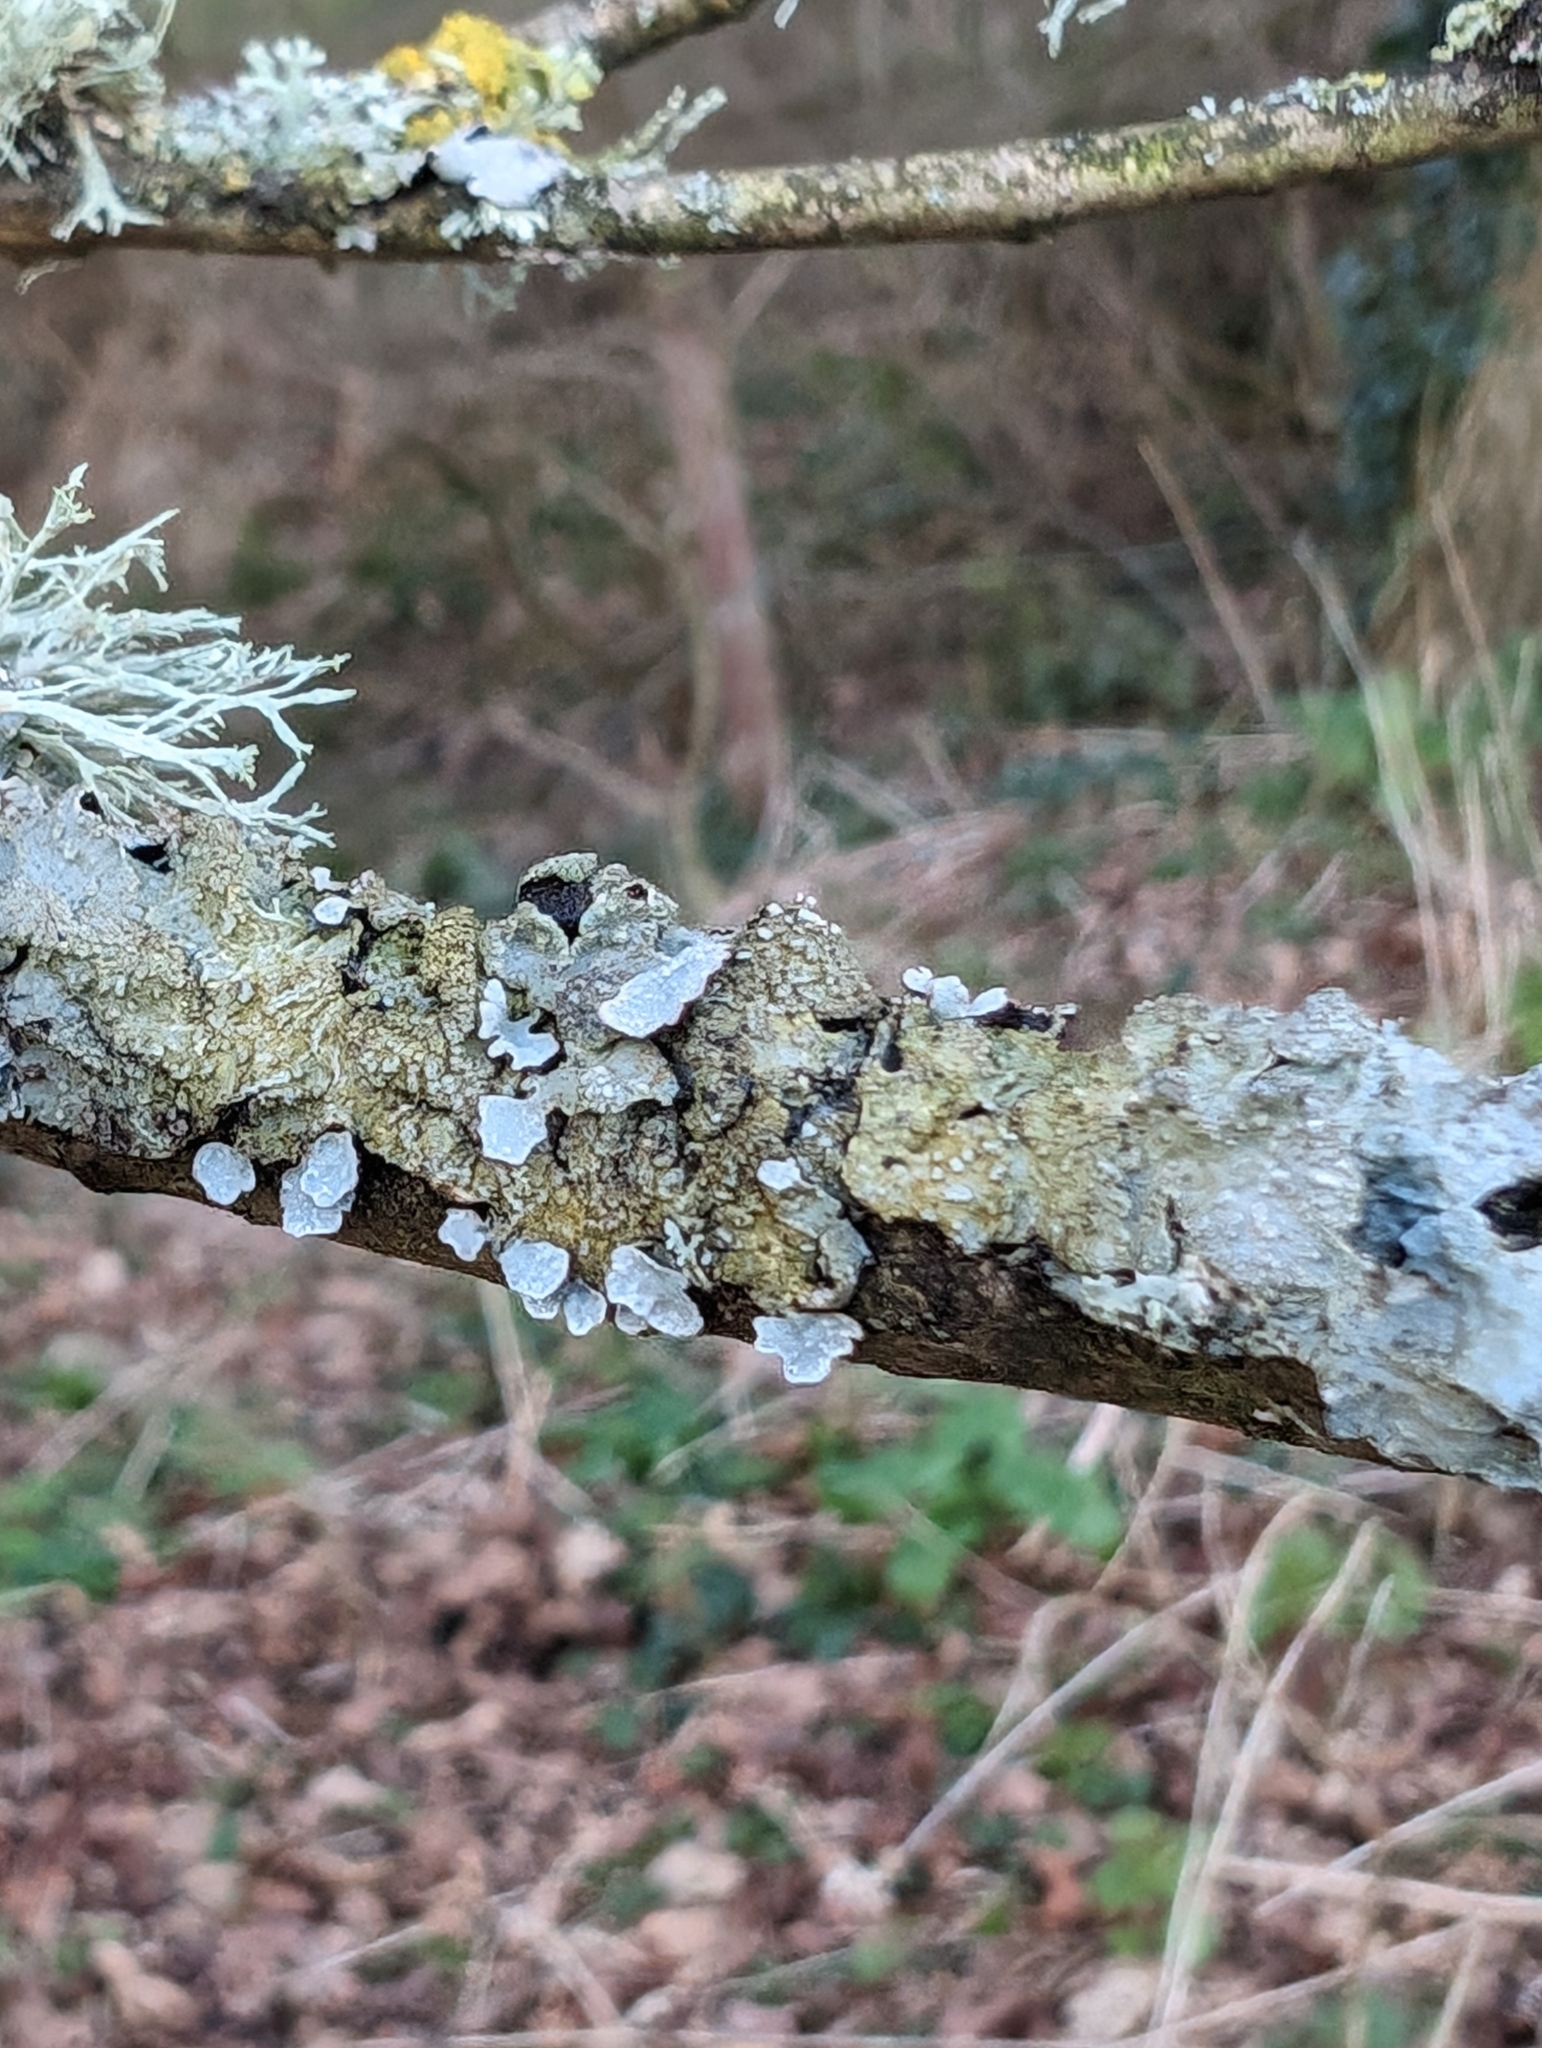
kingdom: Fungi
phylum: Ascomycota
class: Lecanoromycetes
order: Lecanorales
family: Parmeliaceae
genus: Parmelia
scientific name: Parmelia sulcata
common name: Netted shield lichen
